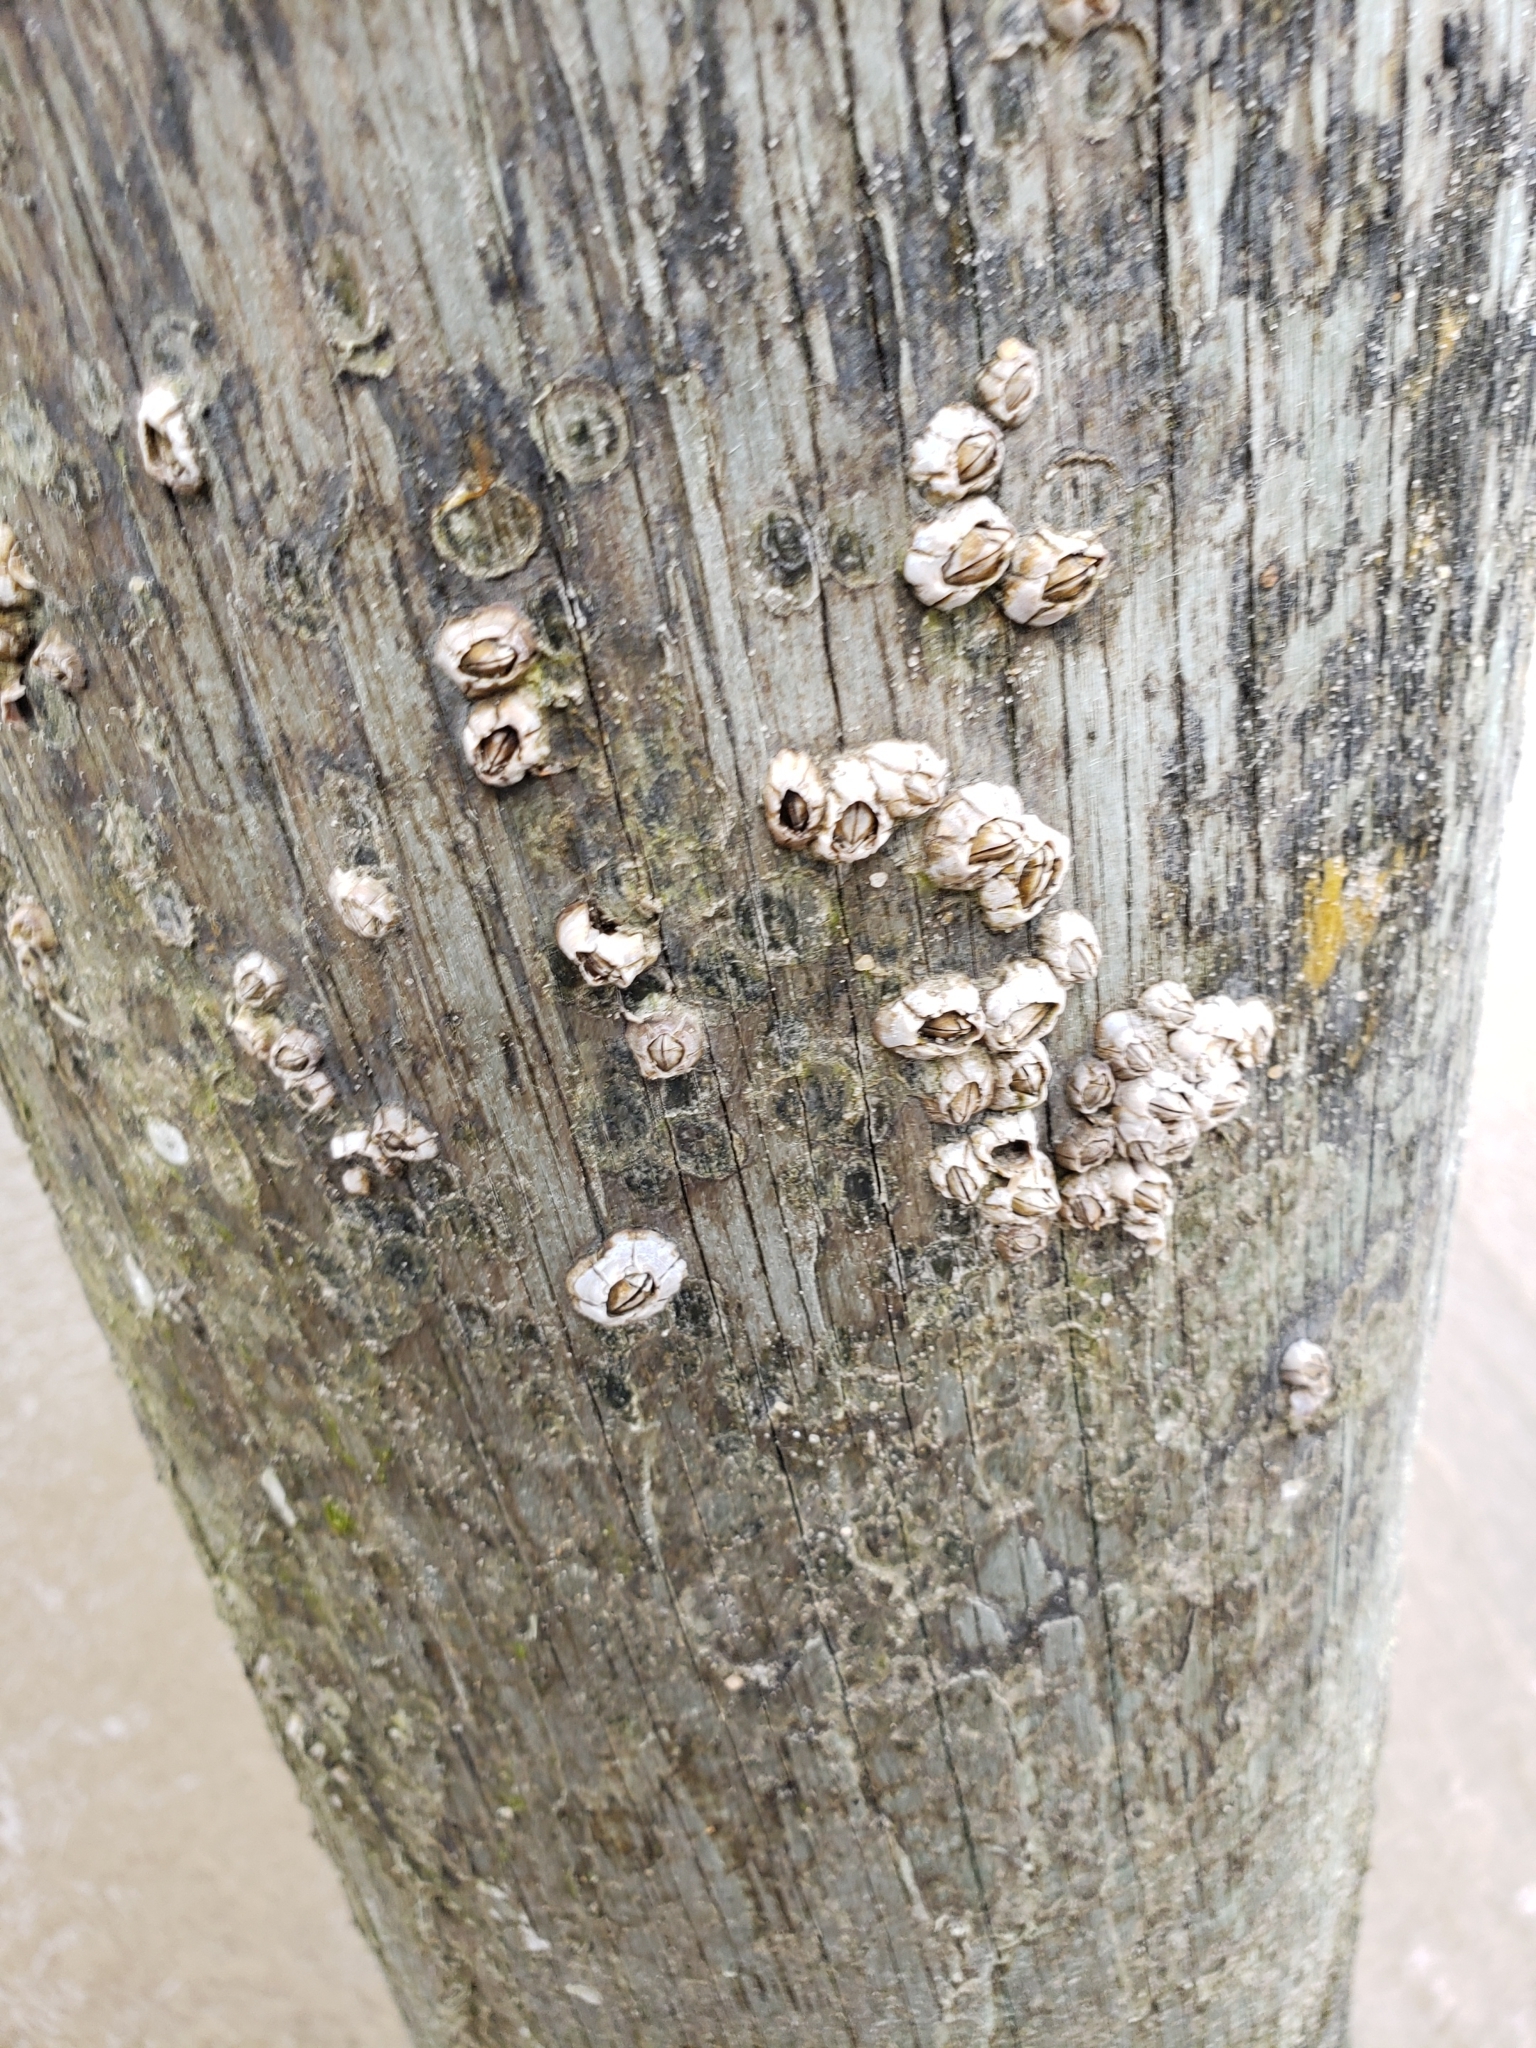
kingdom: Animalia
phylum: Arthropoda
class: Maxillopoda
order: Sessilia
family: Chthamalidae
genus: Chthamalus
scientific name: Chthamalus fragilis
